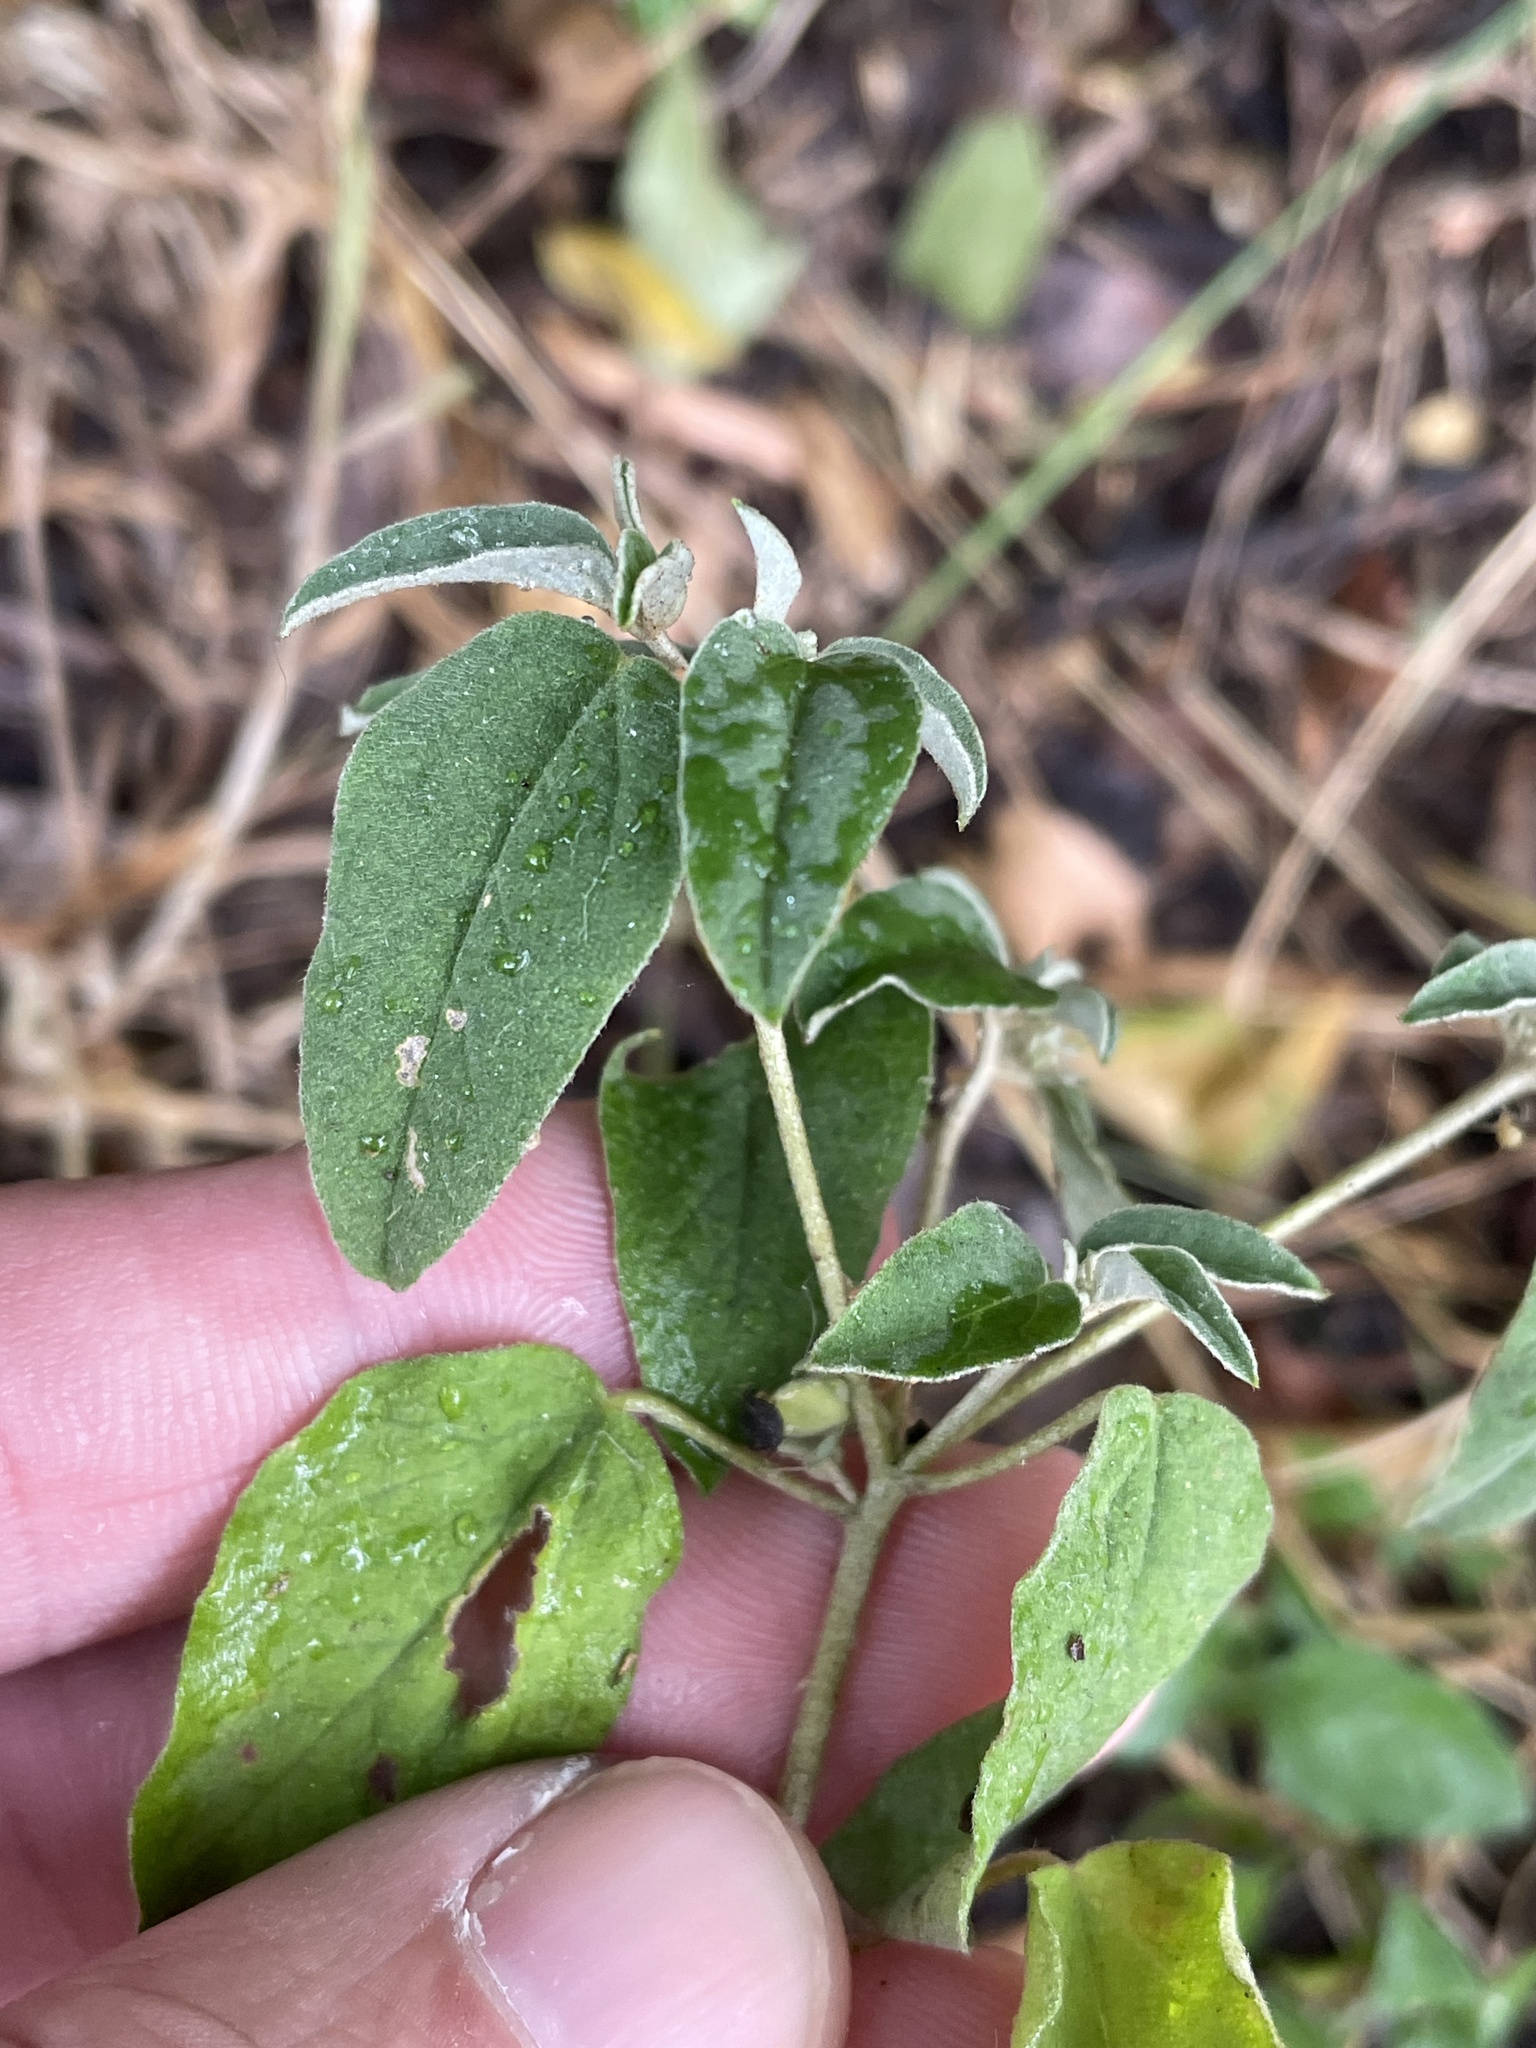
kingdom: Plantae
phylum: Tracheophyta
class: Magnoliopsida
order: Malpighiales
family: Euphorbiaceae
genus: Croton
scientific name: Croton monanthogynus
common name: One-seed croton
